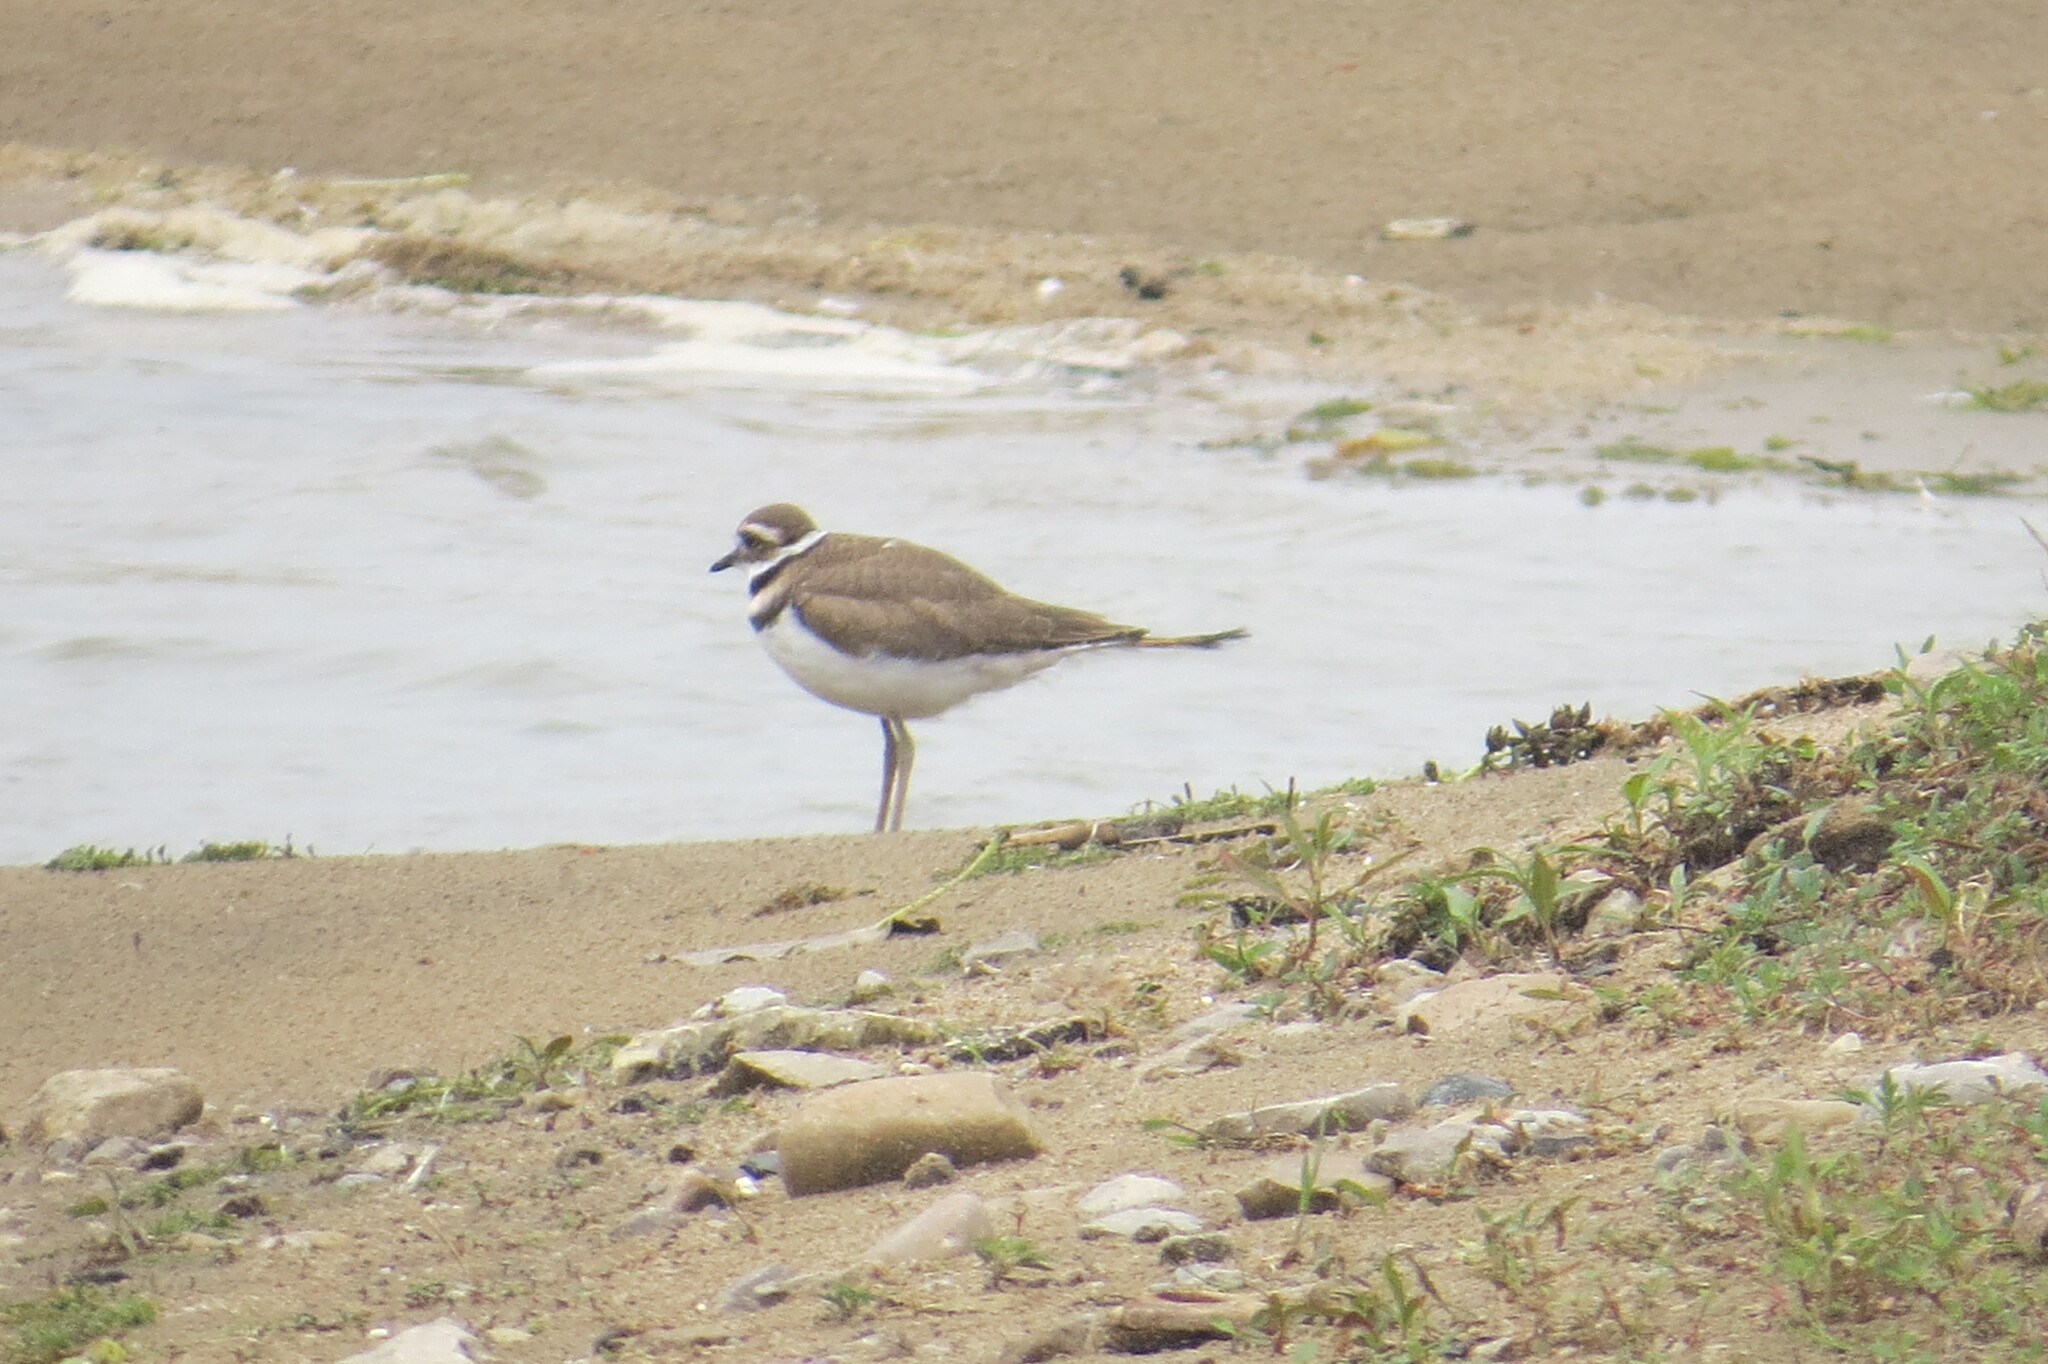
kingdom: Animalia
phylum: Chordata
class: Aves
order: Charadriiformes
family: Charadriidae
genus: Charadrius
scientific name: Charadrius vociferus
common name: Killdeer
